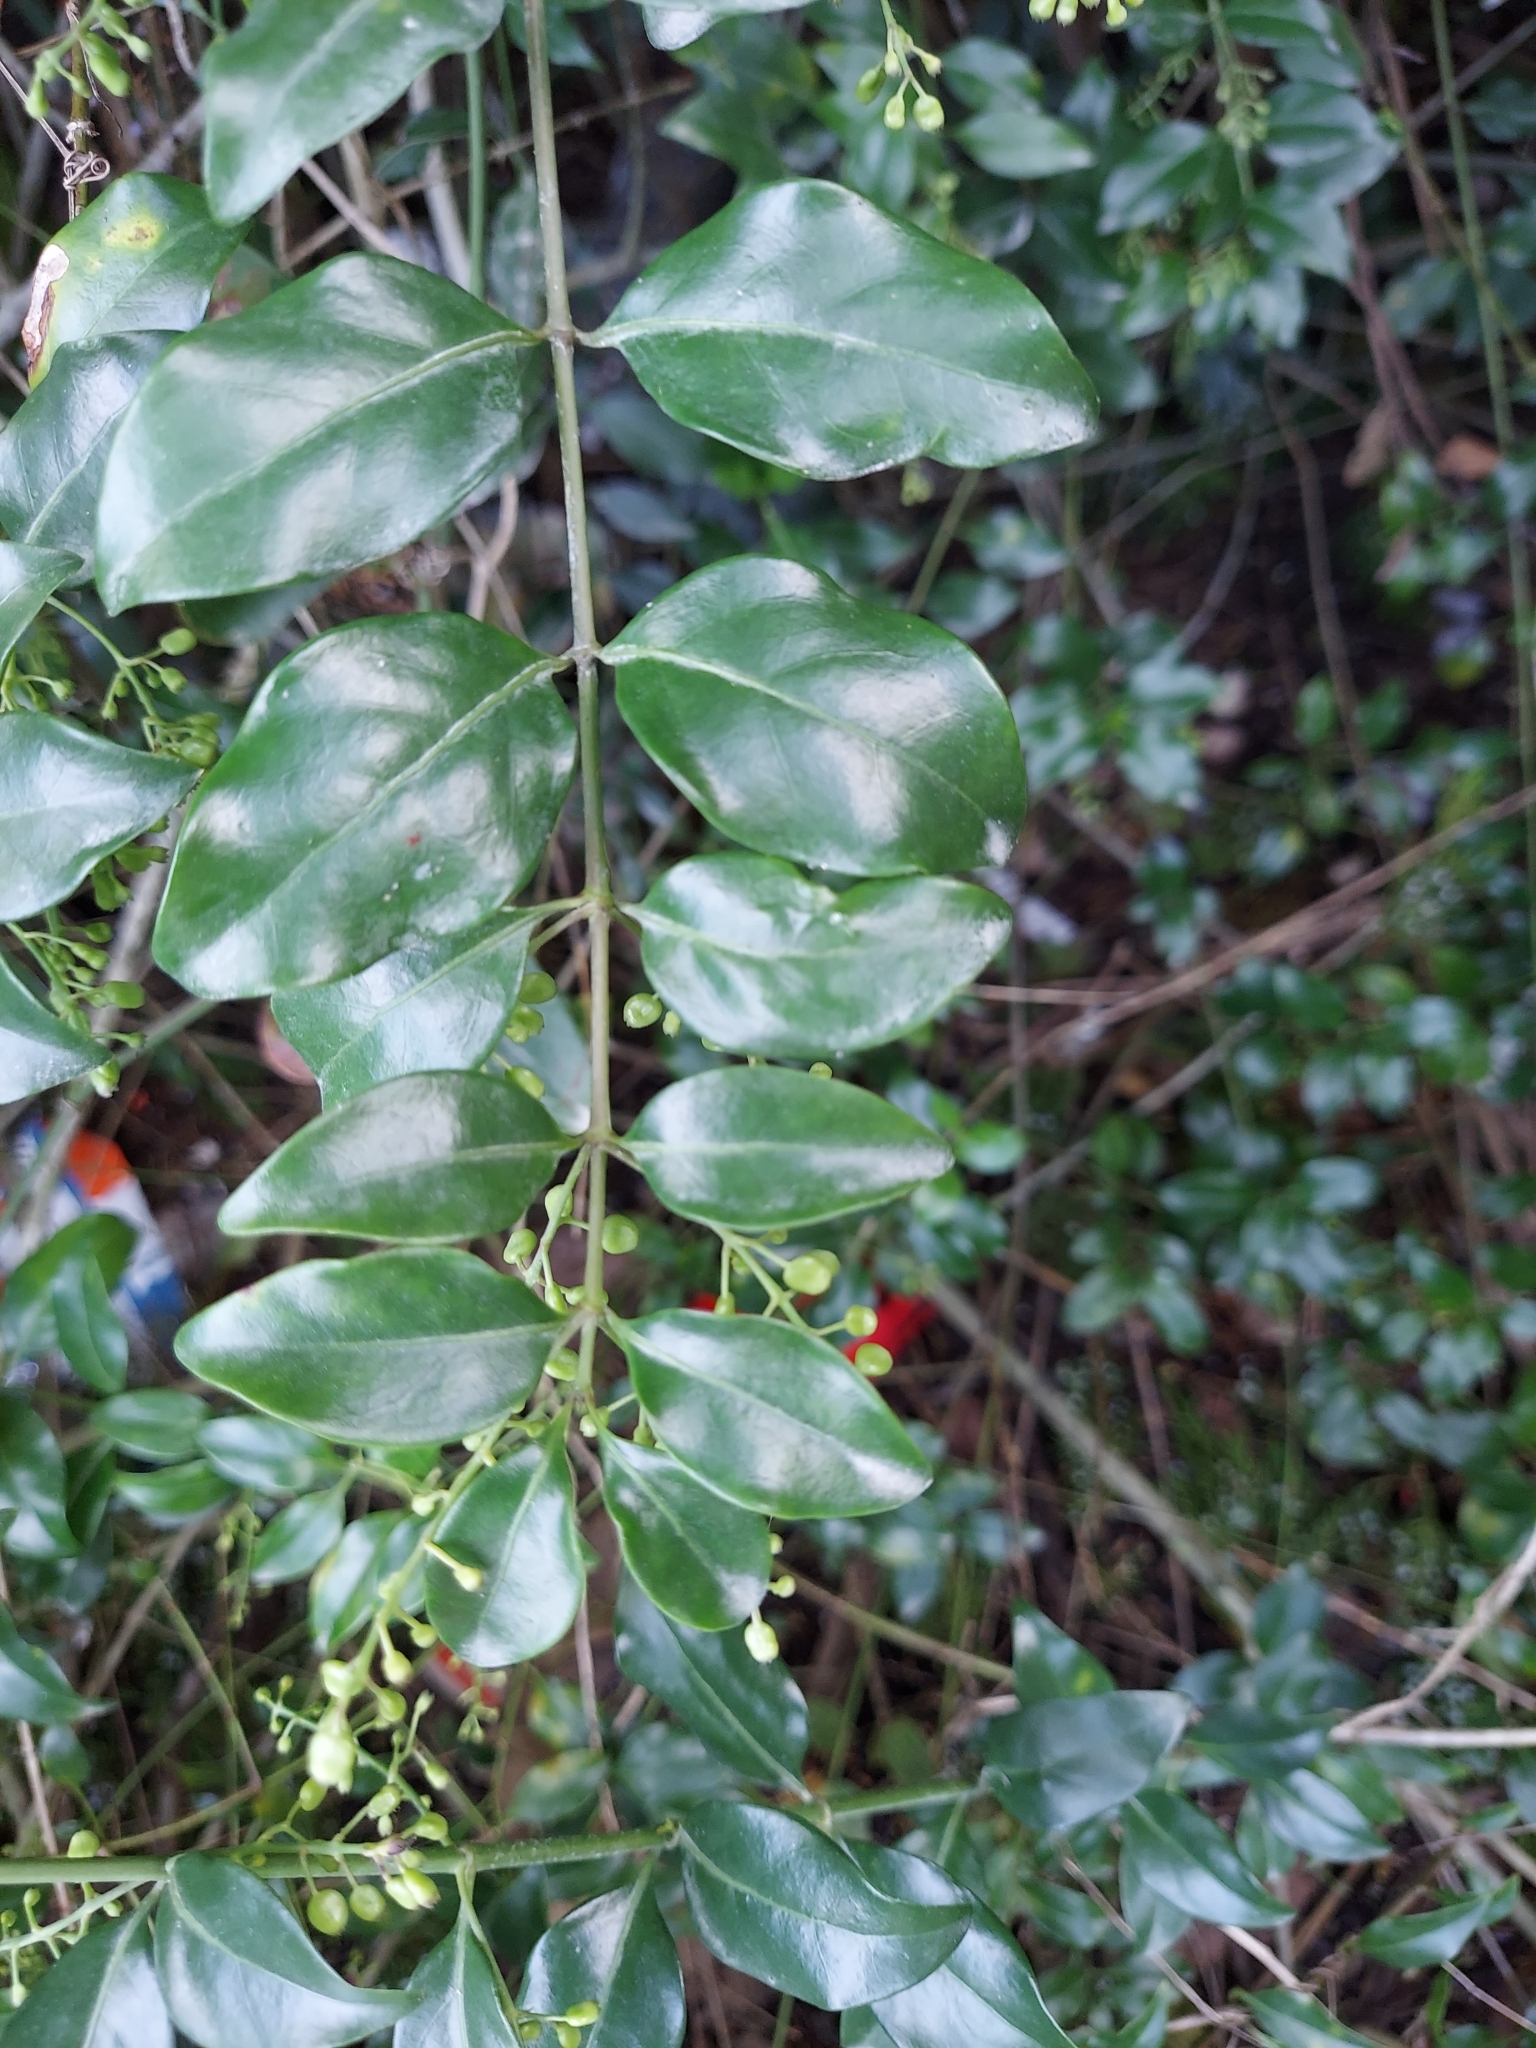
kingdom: Plantae
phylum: Tracheophyta
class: Magnoliopsida
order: Gentianales
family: Rubiaceae
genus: Chiococca
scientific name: Chiococca alba
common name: Snowberry
